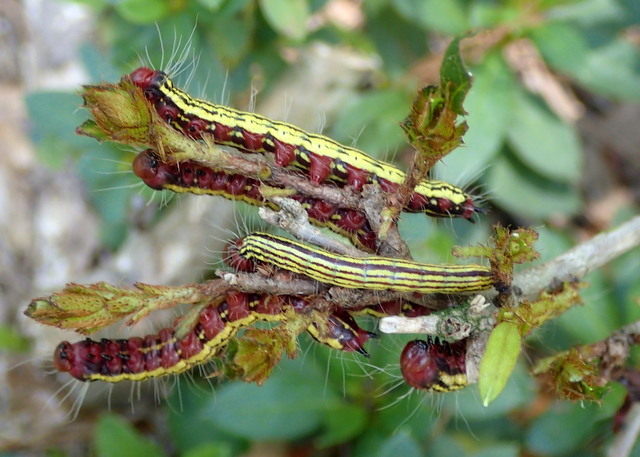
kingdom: Animalia
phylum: Arthropoda
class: Insecta
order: Lepidoptera
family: Notodontidae
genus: Datana
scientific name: Datana major
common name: Azalea caterpillar
